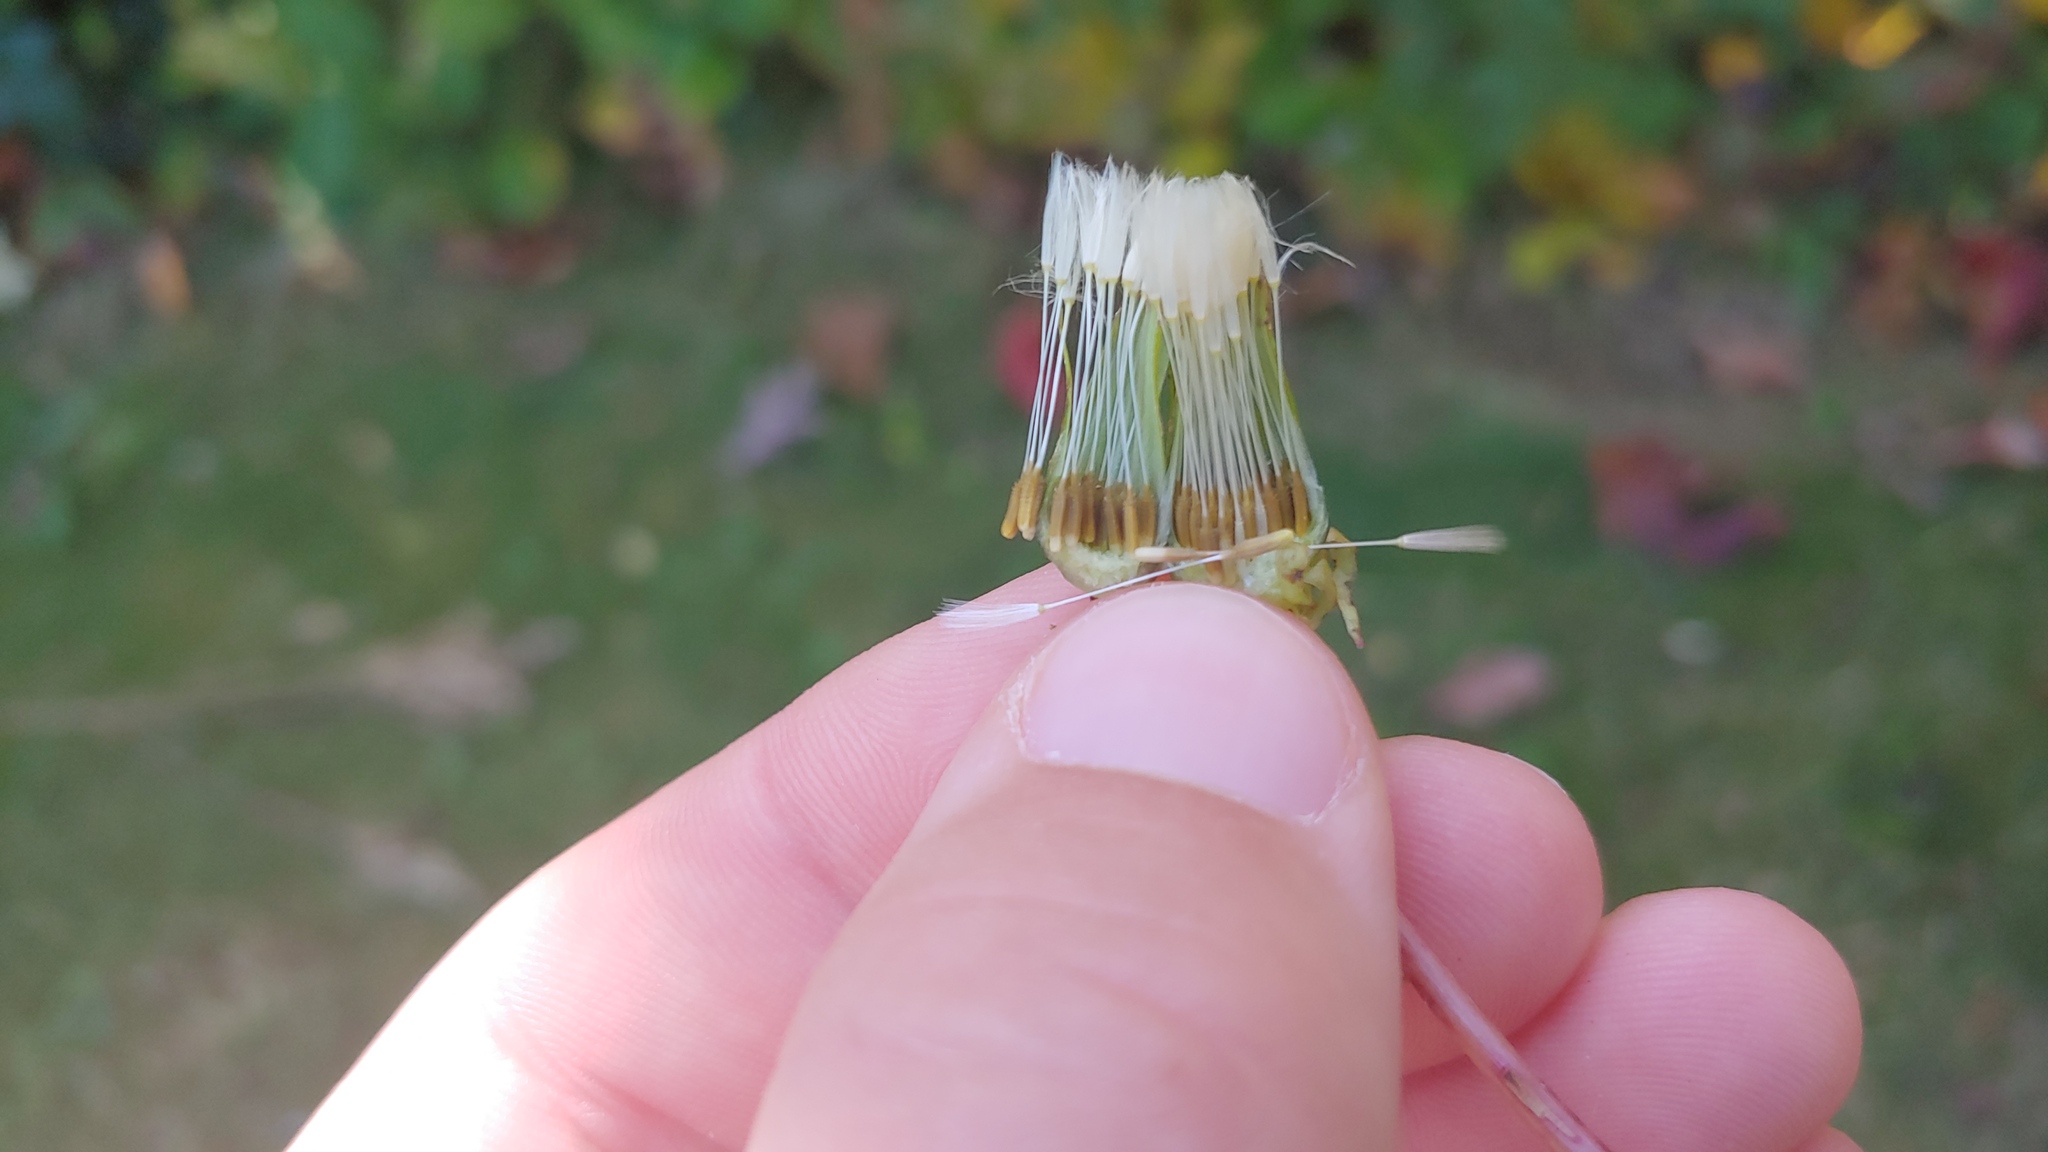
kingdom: Plantae
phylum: Tracheophyta
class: Magnoliopsida
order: Asterales
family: Asteraceae
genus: Taraxacum
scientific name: Taraxacum officinale
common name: Common dandelion
